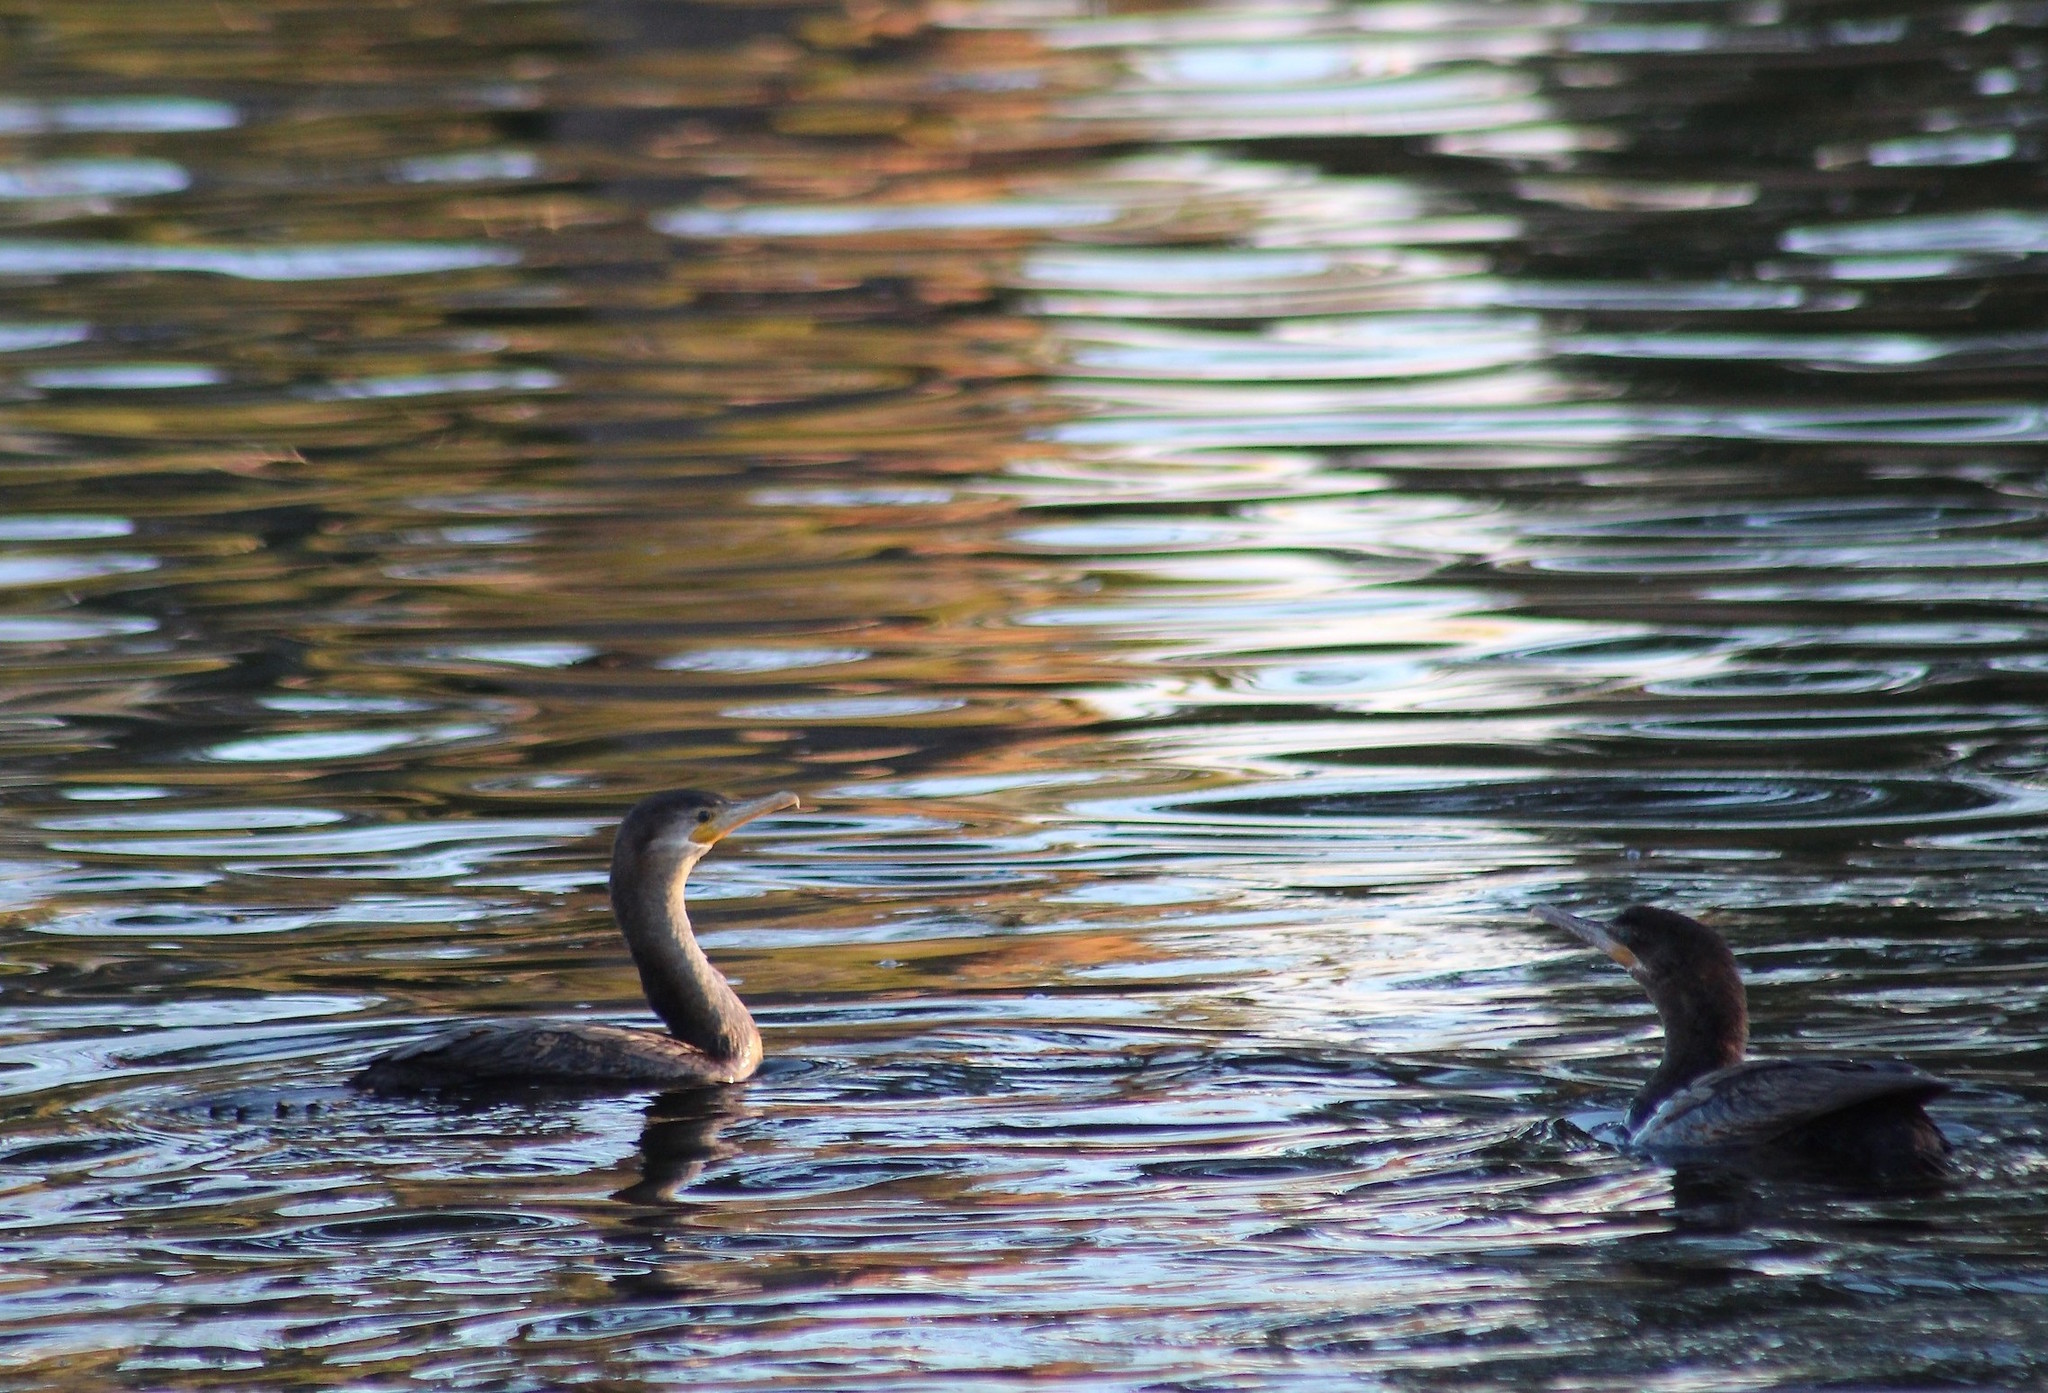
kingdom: Animalia
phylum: Chordata
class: Aves
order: Suliformes
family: Phalacrocoracidae
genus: Phalacrocorax
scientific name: Phalacrocorax brasilianus
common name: Neotropic cormorant
